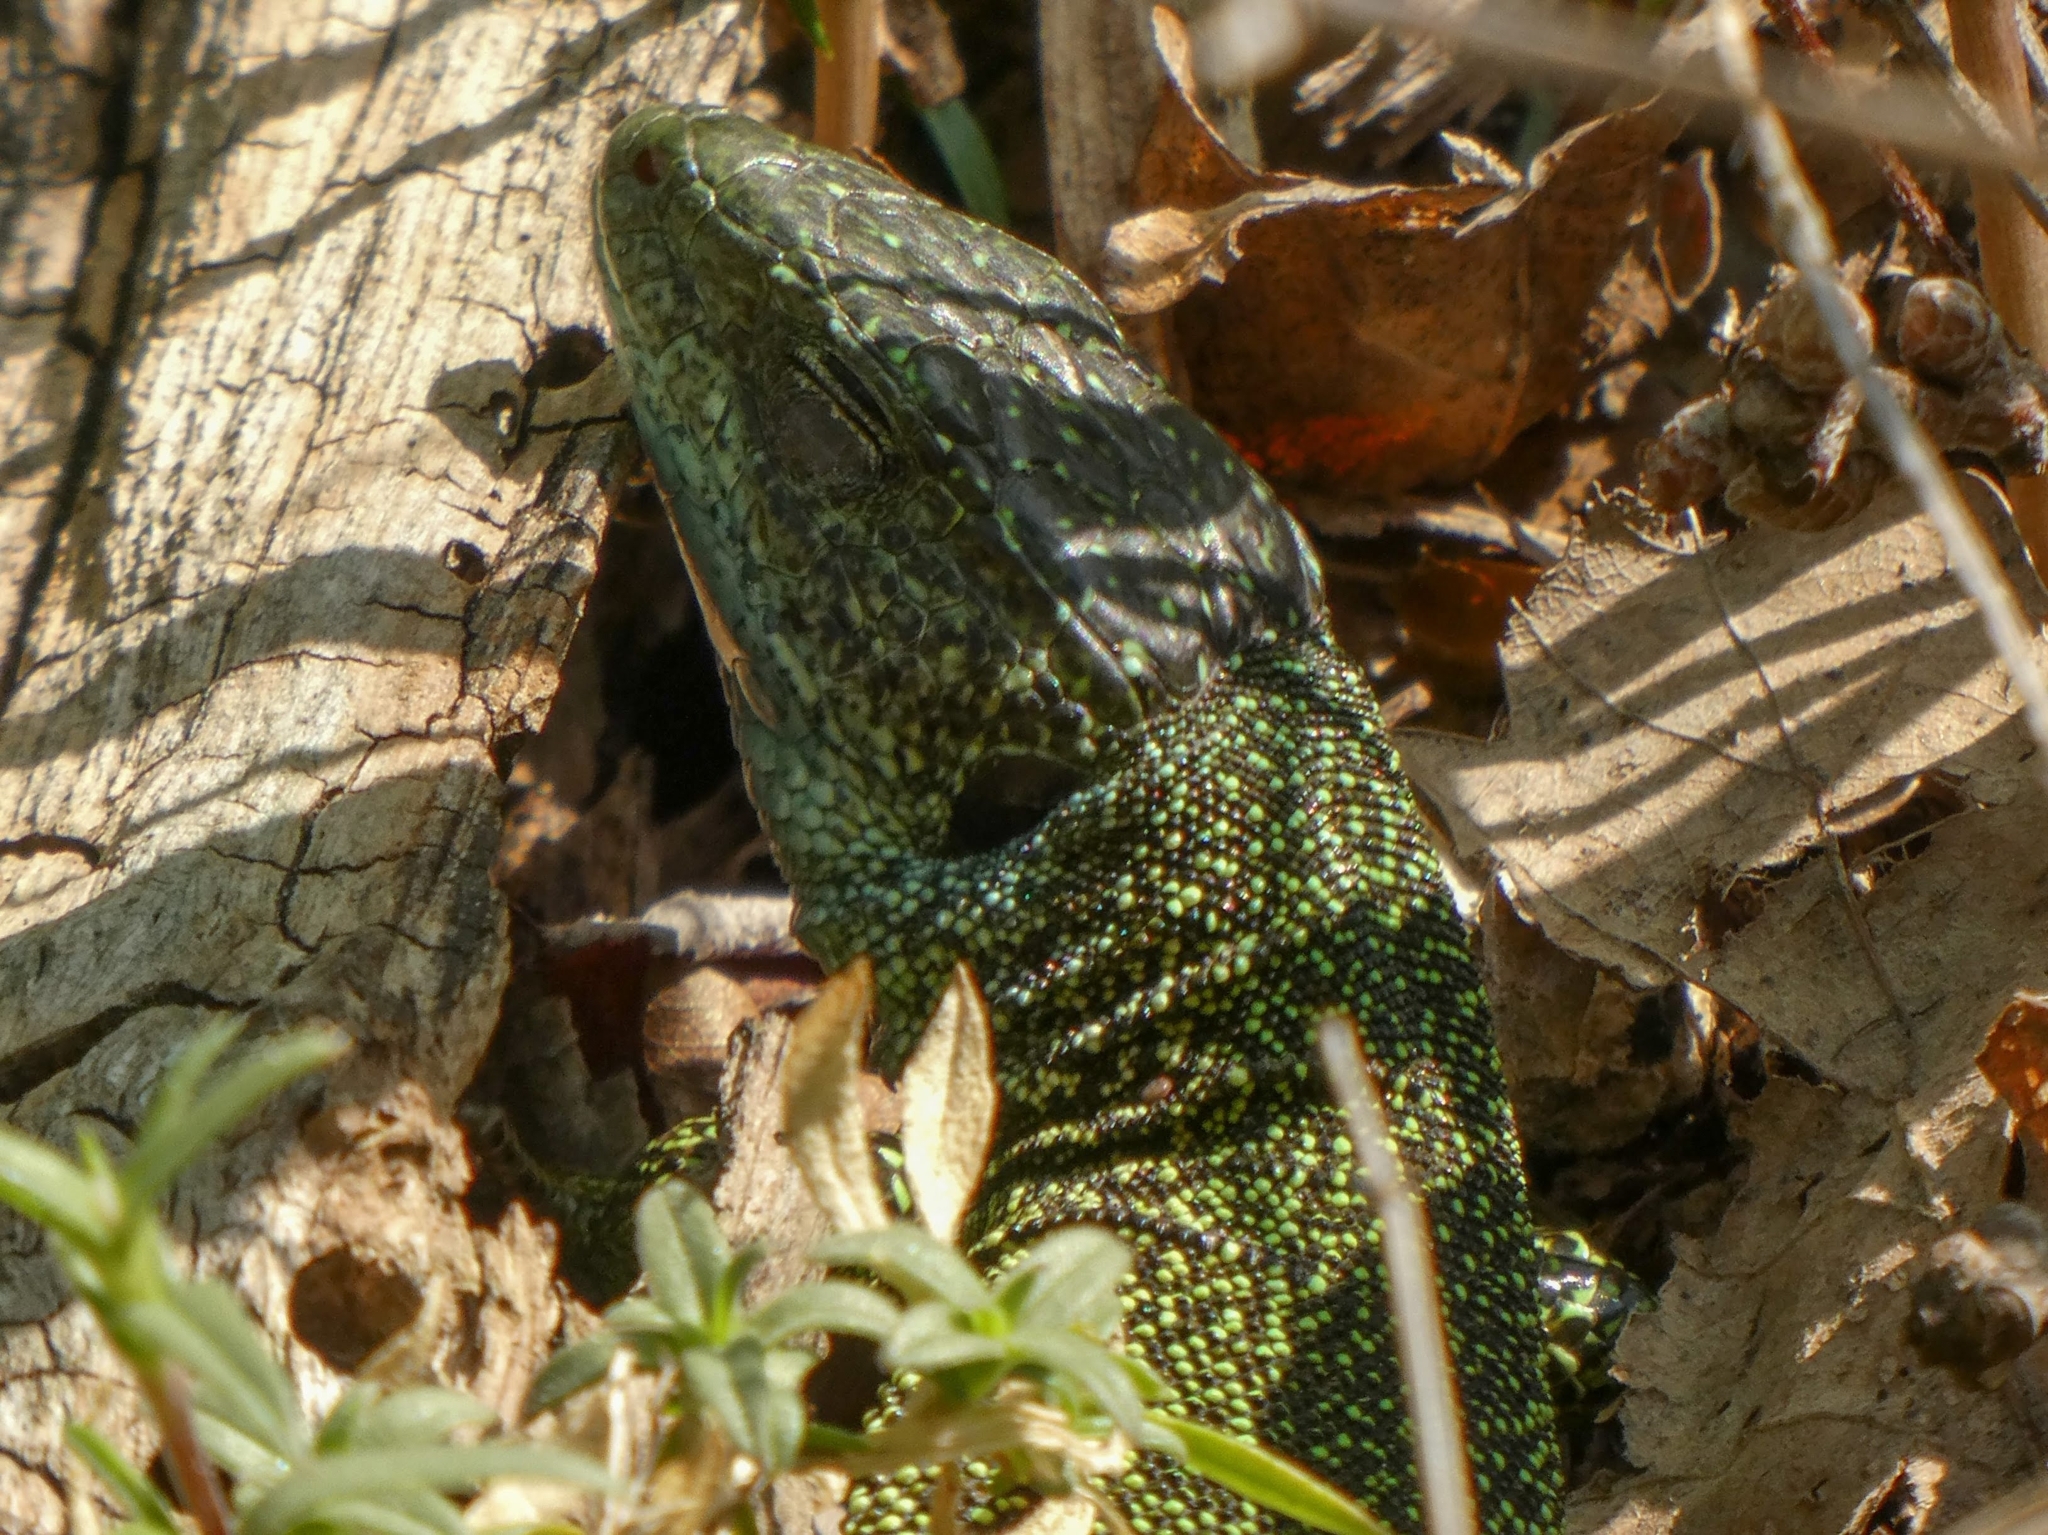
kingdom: Animalia
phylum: Chordata
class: Squamata
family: Lacertidae
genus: Lacerta
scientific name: Lacerta viridis
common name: European green lizard
